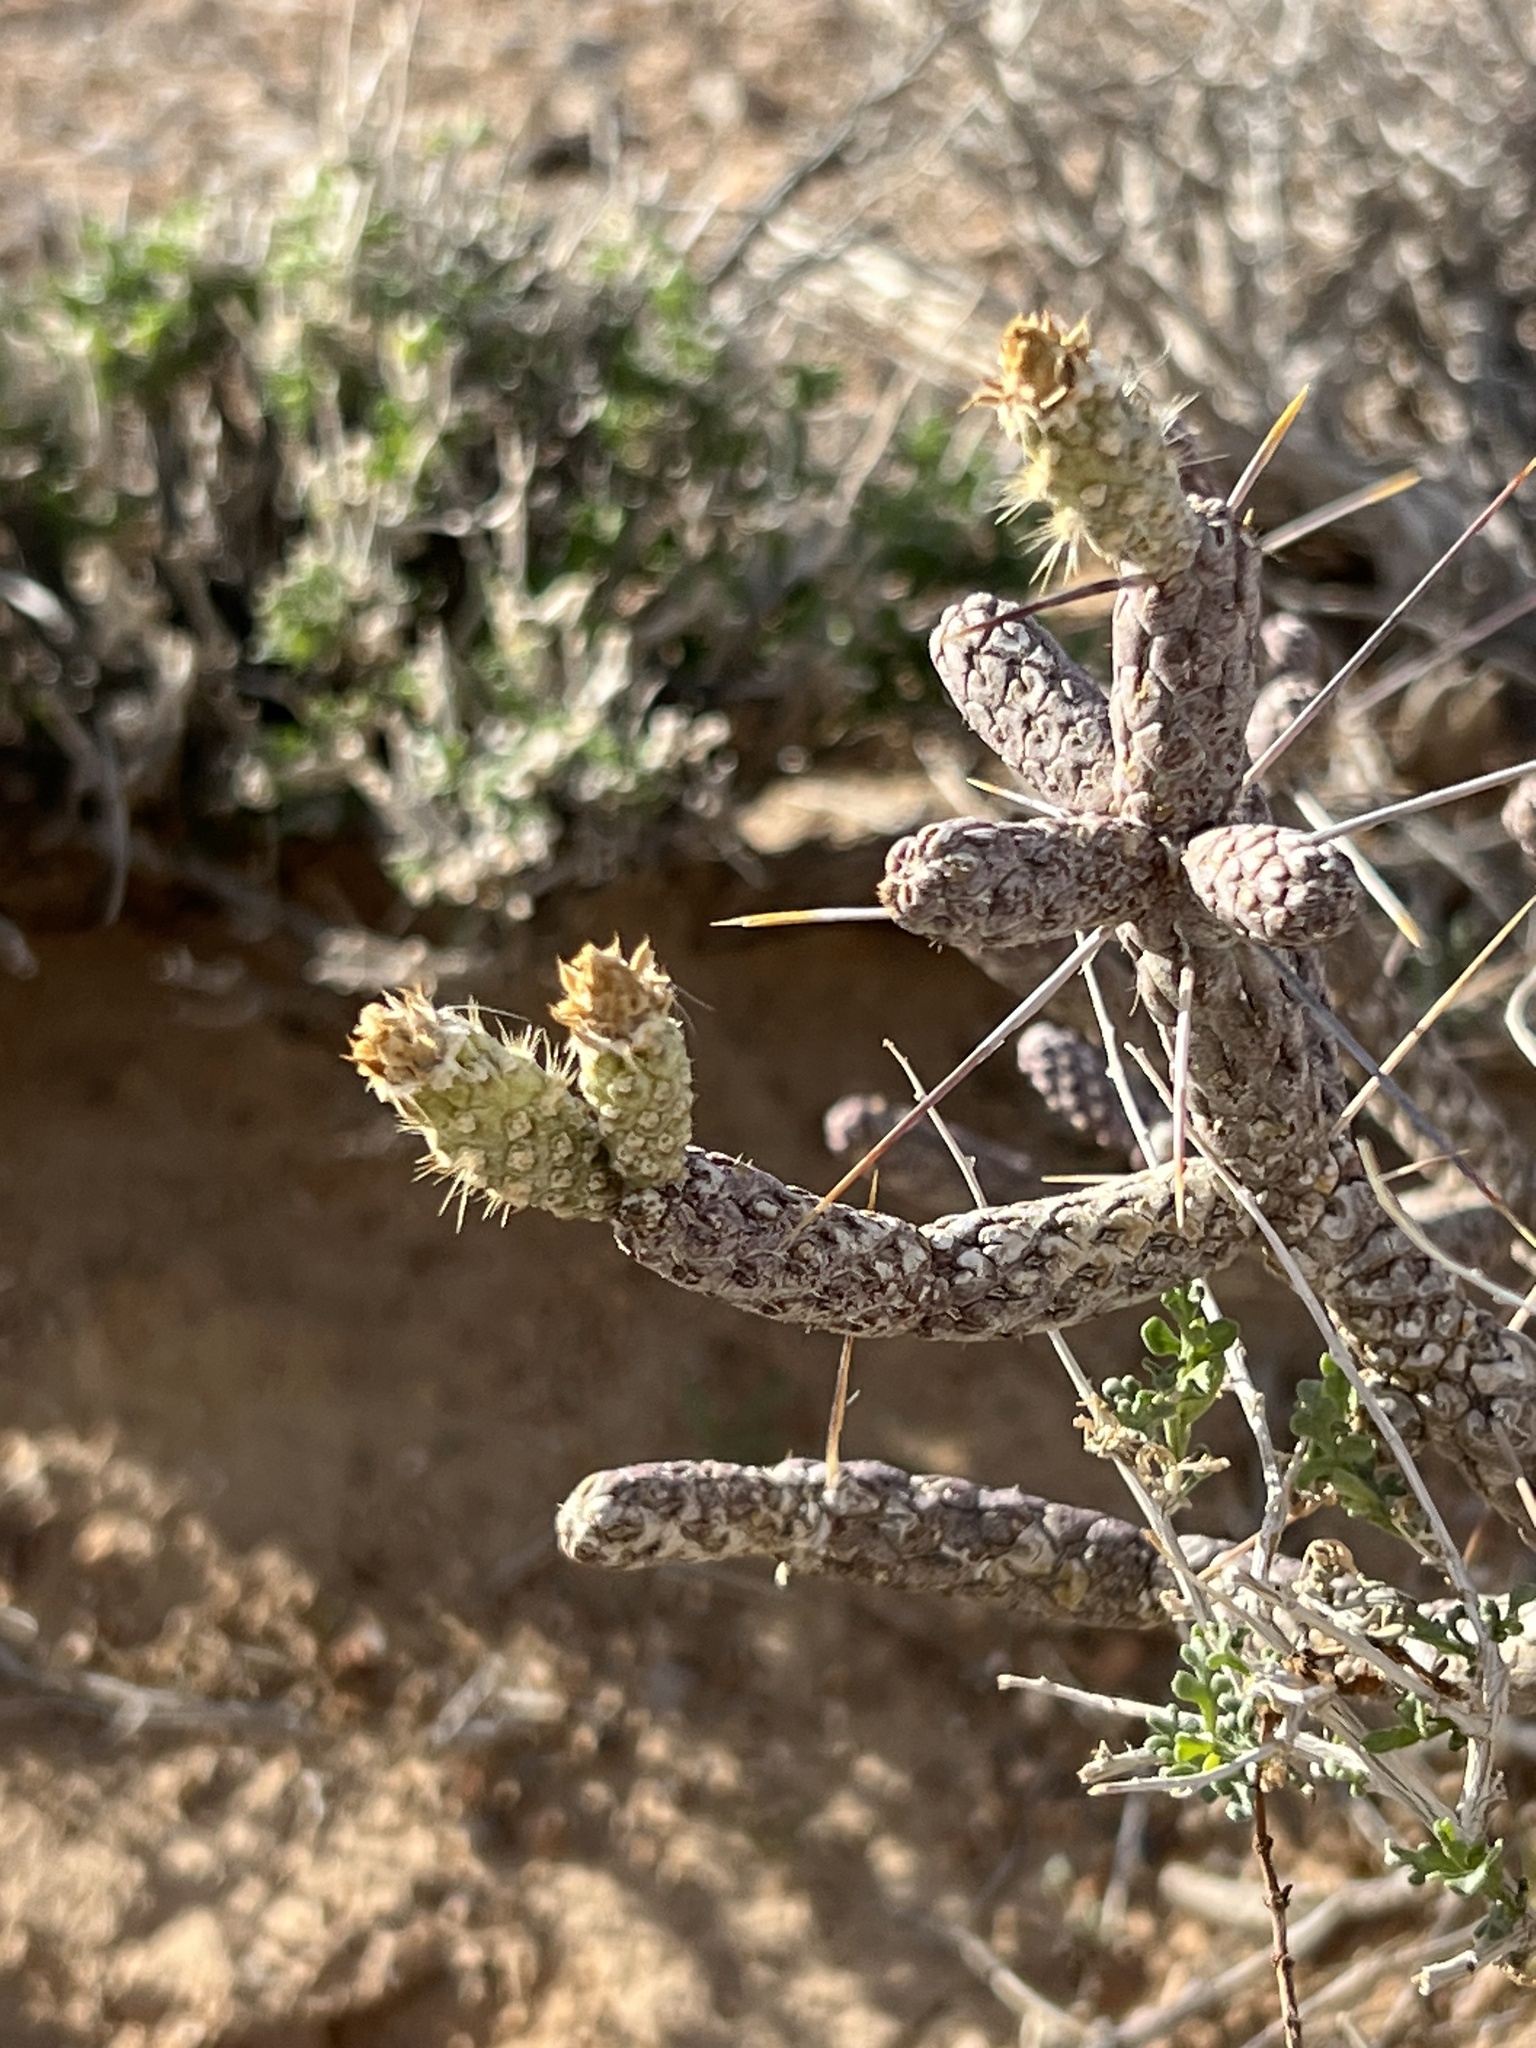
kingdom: Plantae
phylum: Tracheophyta
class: Magnoliopsida
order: Caryophyllales
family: Cactaceae
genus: Cylindropuntia
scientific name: Cylindropuntia ramosissima
